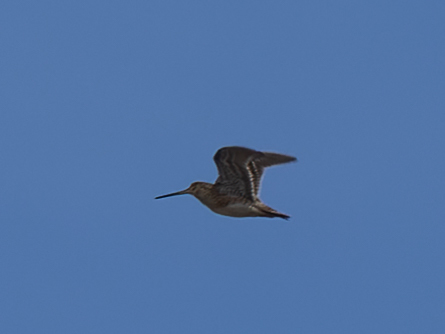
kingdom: Animalia
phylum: Chordata
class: Aves
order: Charadriiformes
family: Scolopacidae
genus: Gallinago
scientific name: Gallinago gallinago
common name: Common snipe
